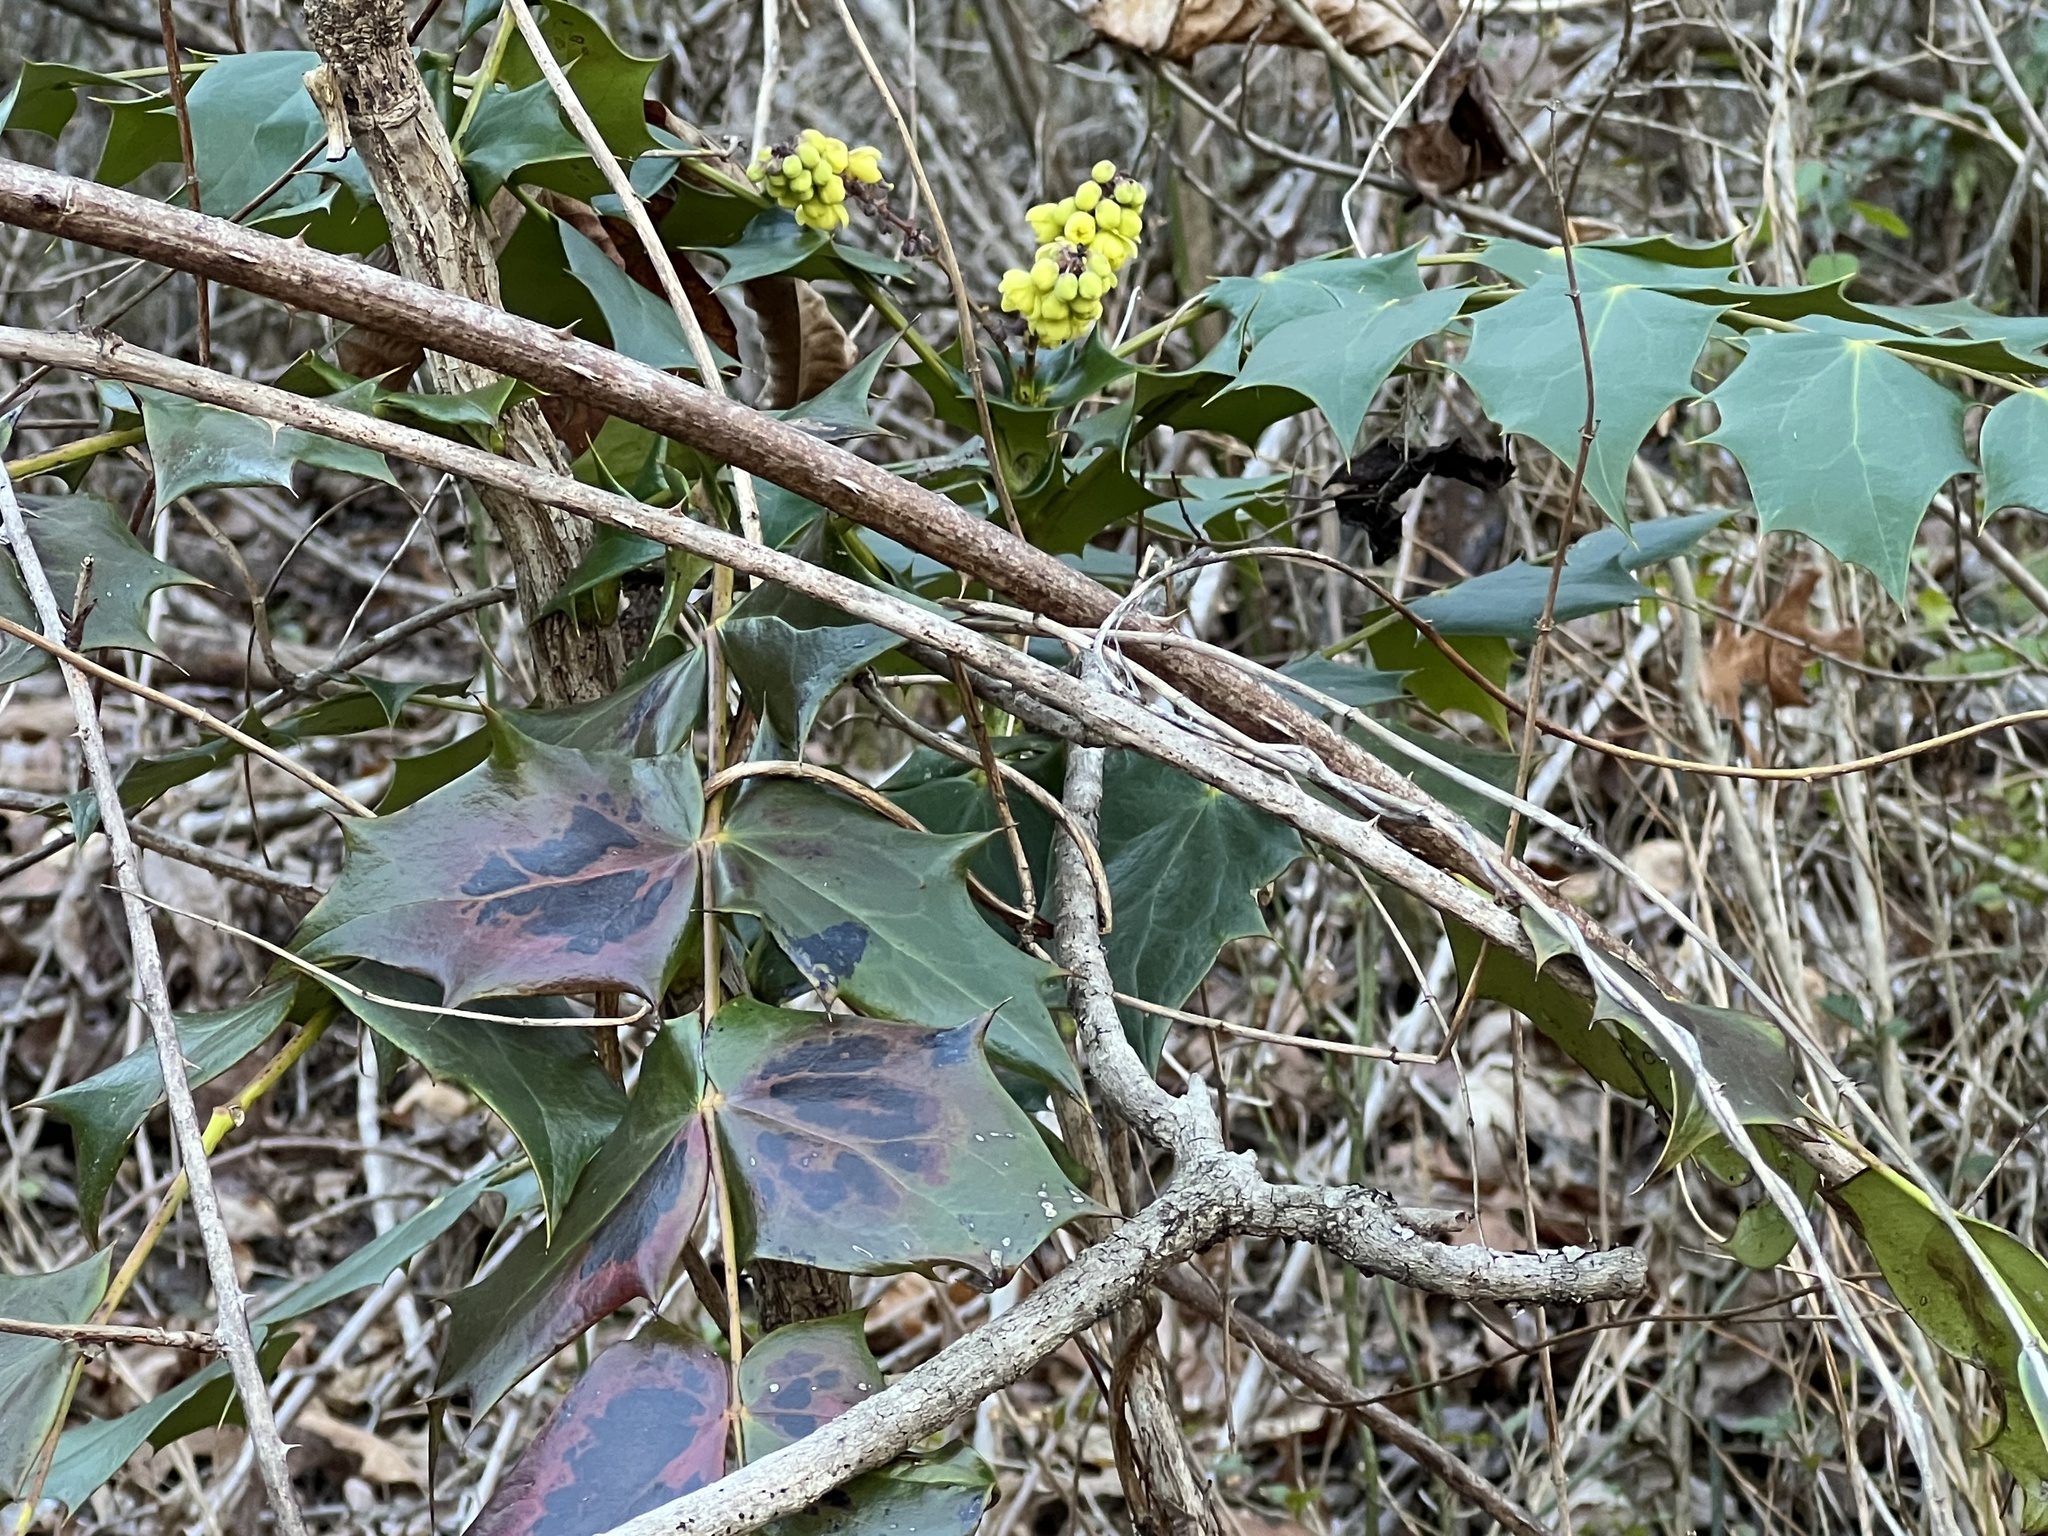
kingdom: Plantae
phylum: Tracheophyta
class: Magnoliopsida
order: Ranunculales
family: Berberidaceae
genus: Mahonia
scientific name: Mahonia bealei
